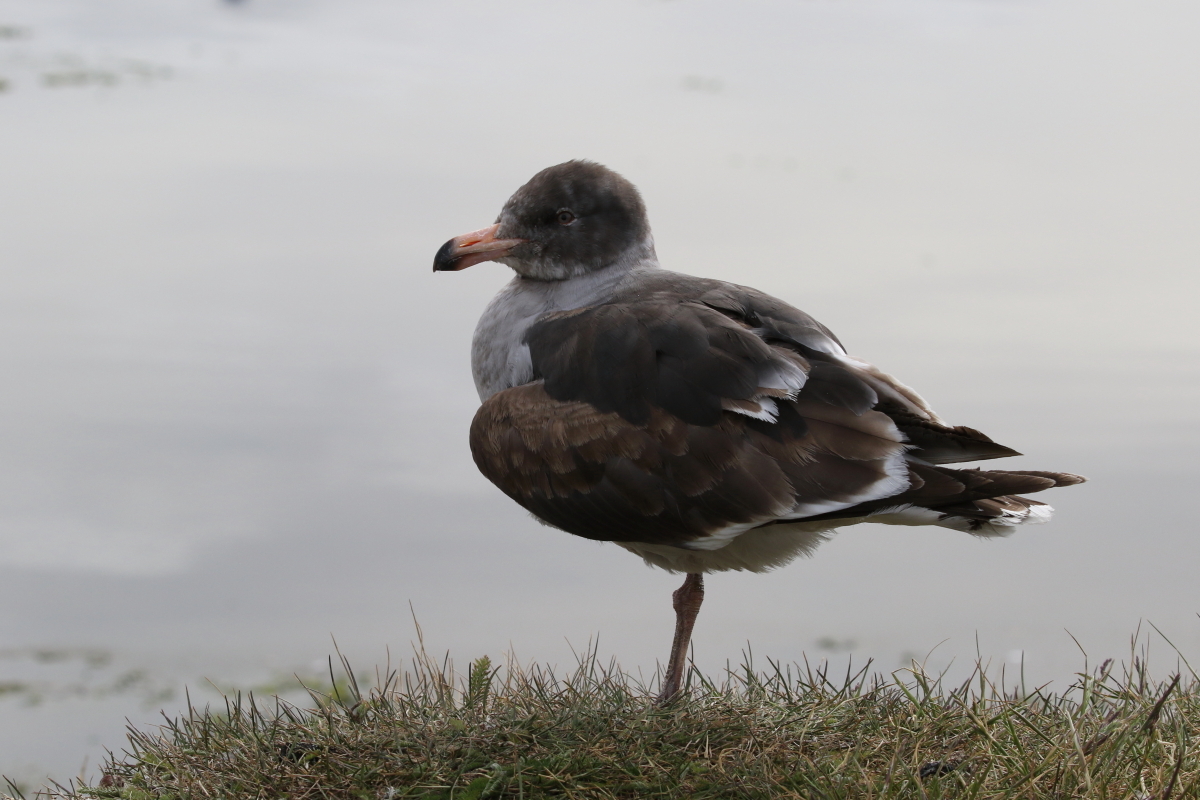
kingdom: Animalia
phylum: Chordata
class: Aves
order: Charadriiformes
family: Laridae
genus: Leucophaeus
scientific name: Leucophaeus scoresbii
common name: Dolphin gull
